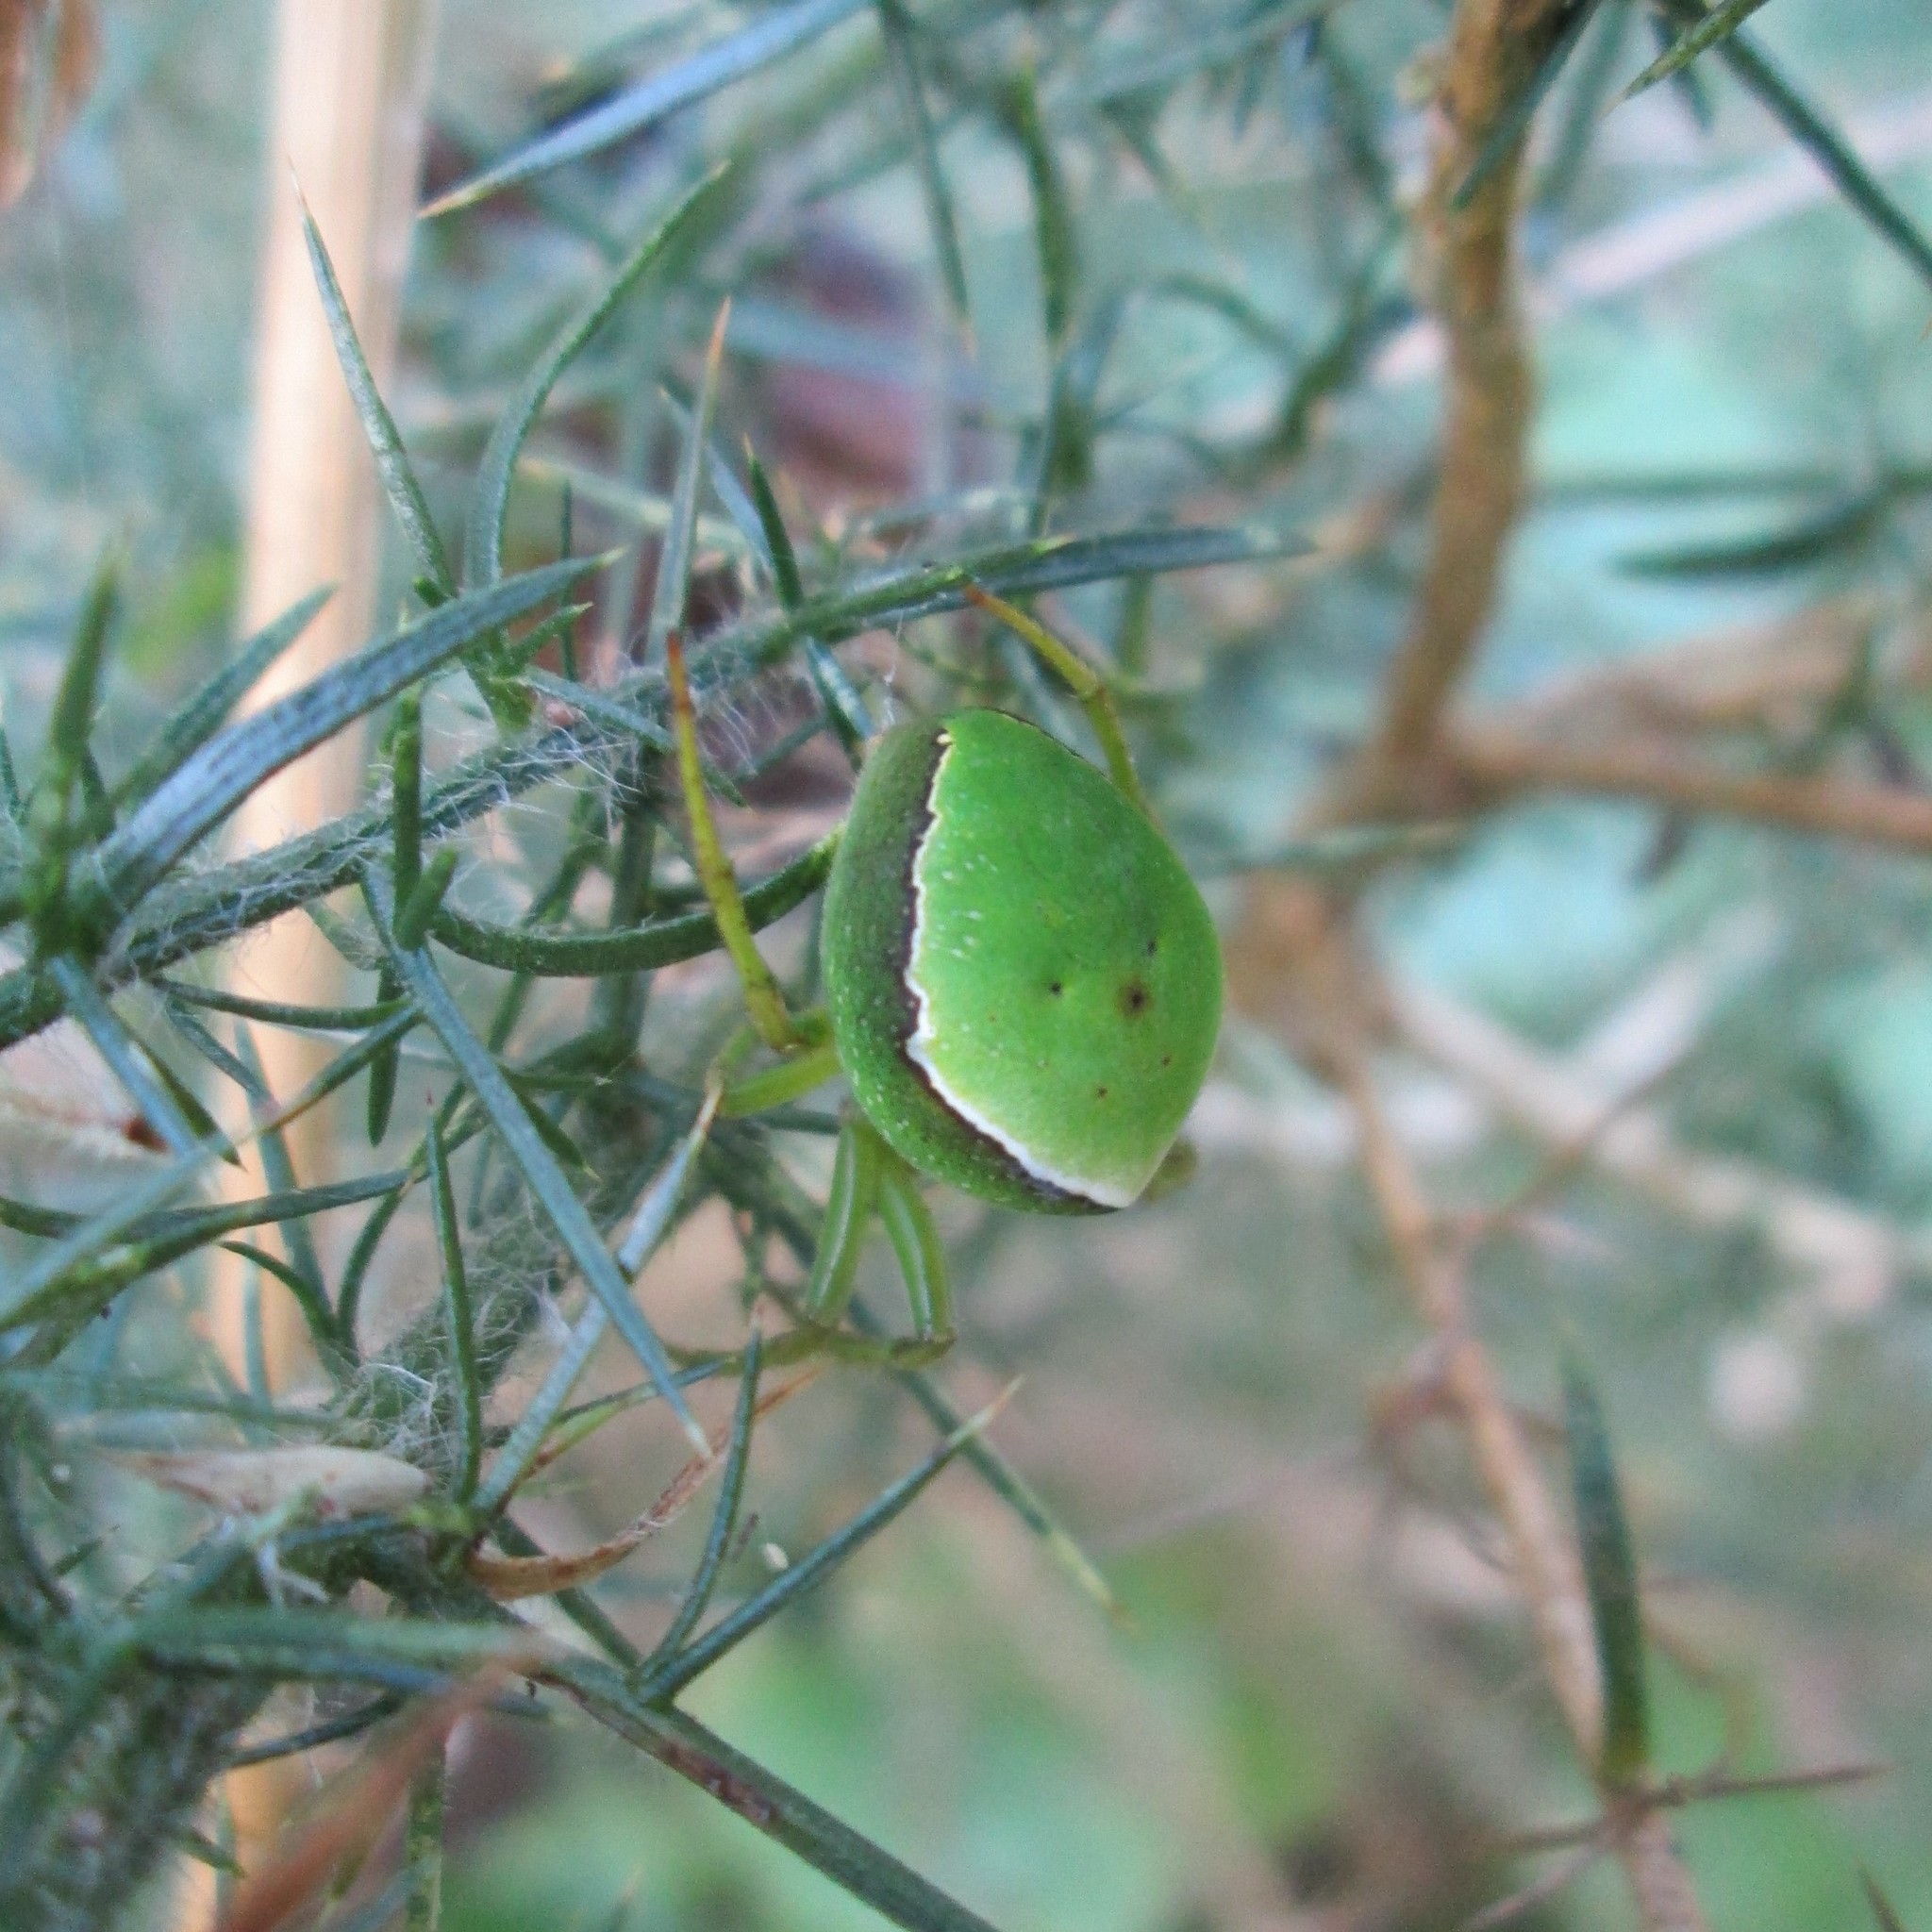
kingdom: Animalia
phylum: Arthropoda
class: Arachnida
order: Araneae
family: Araneidae
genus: Colaranea
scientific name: Colaranea viriditas
